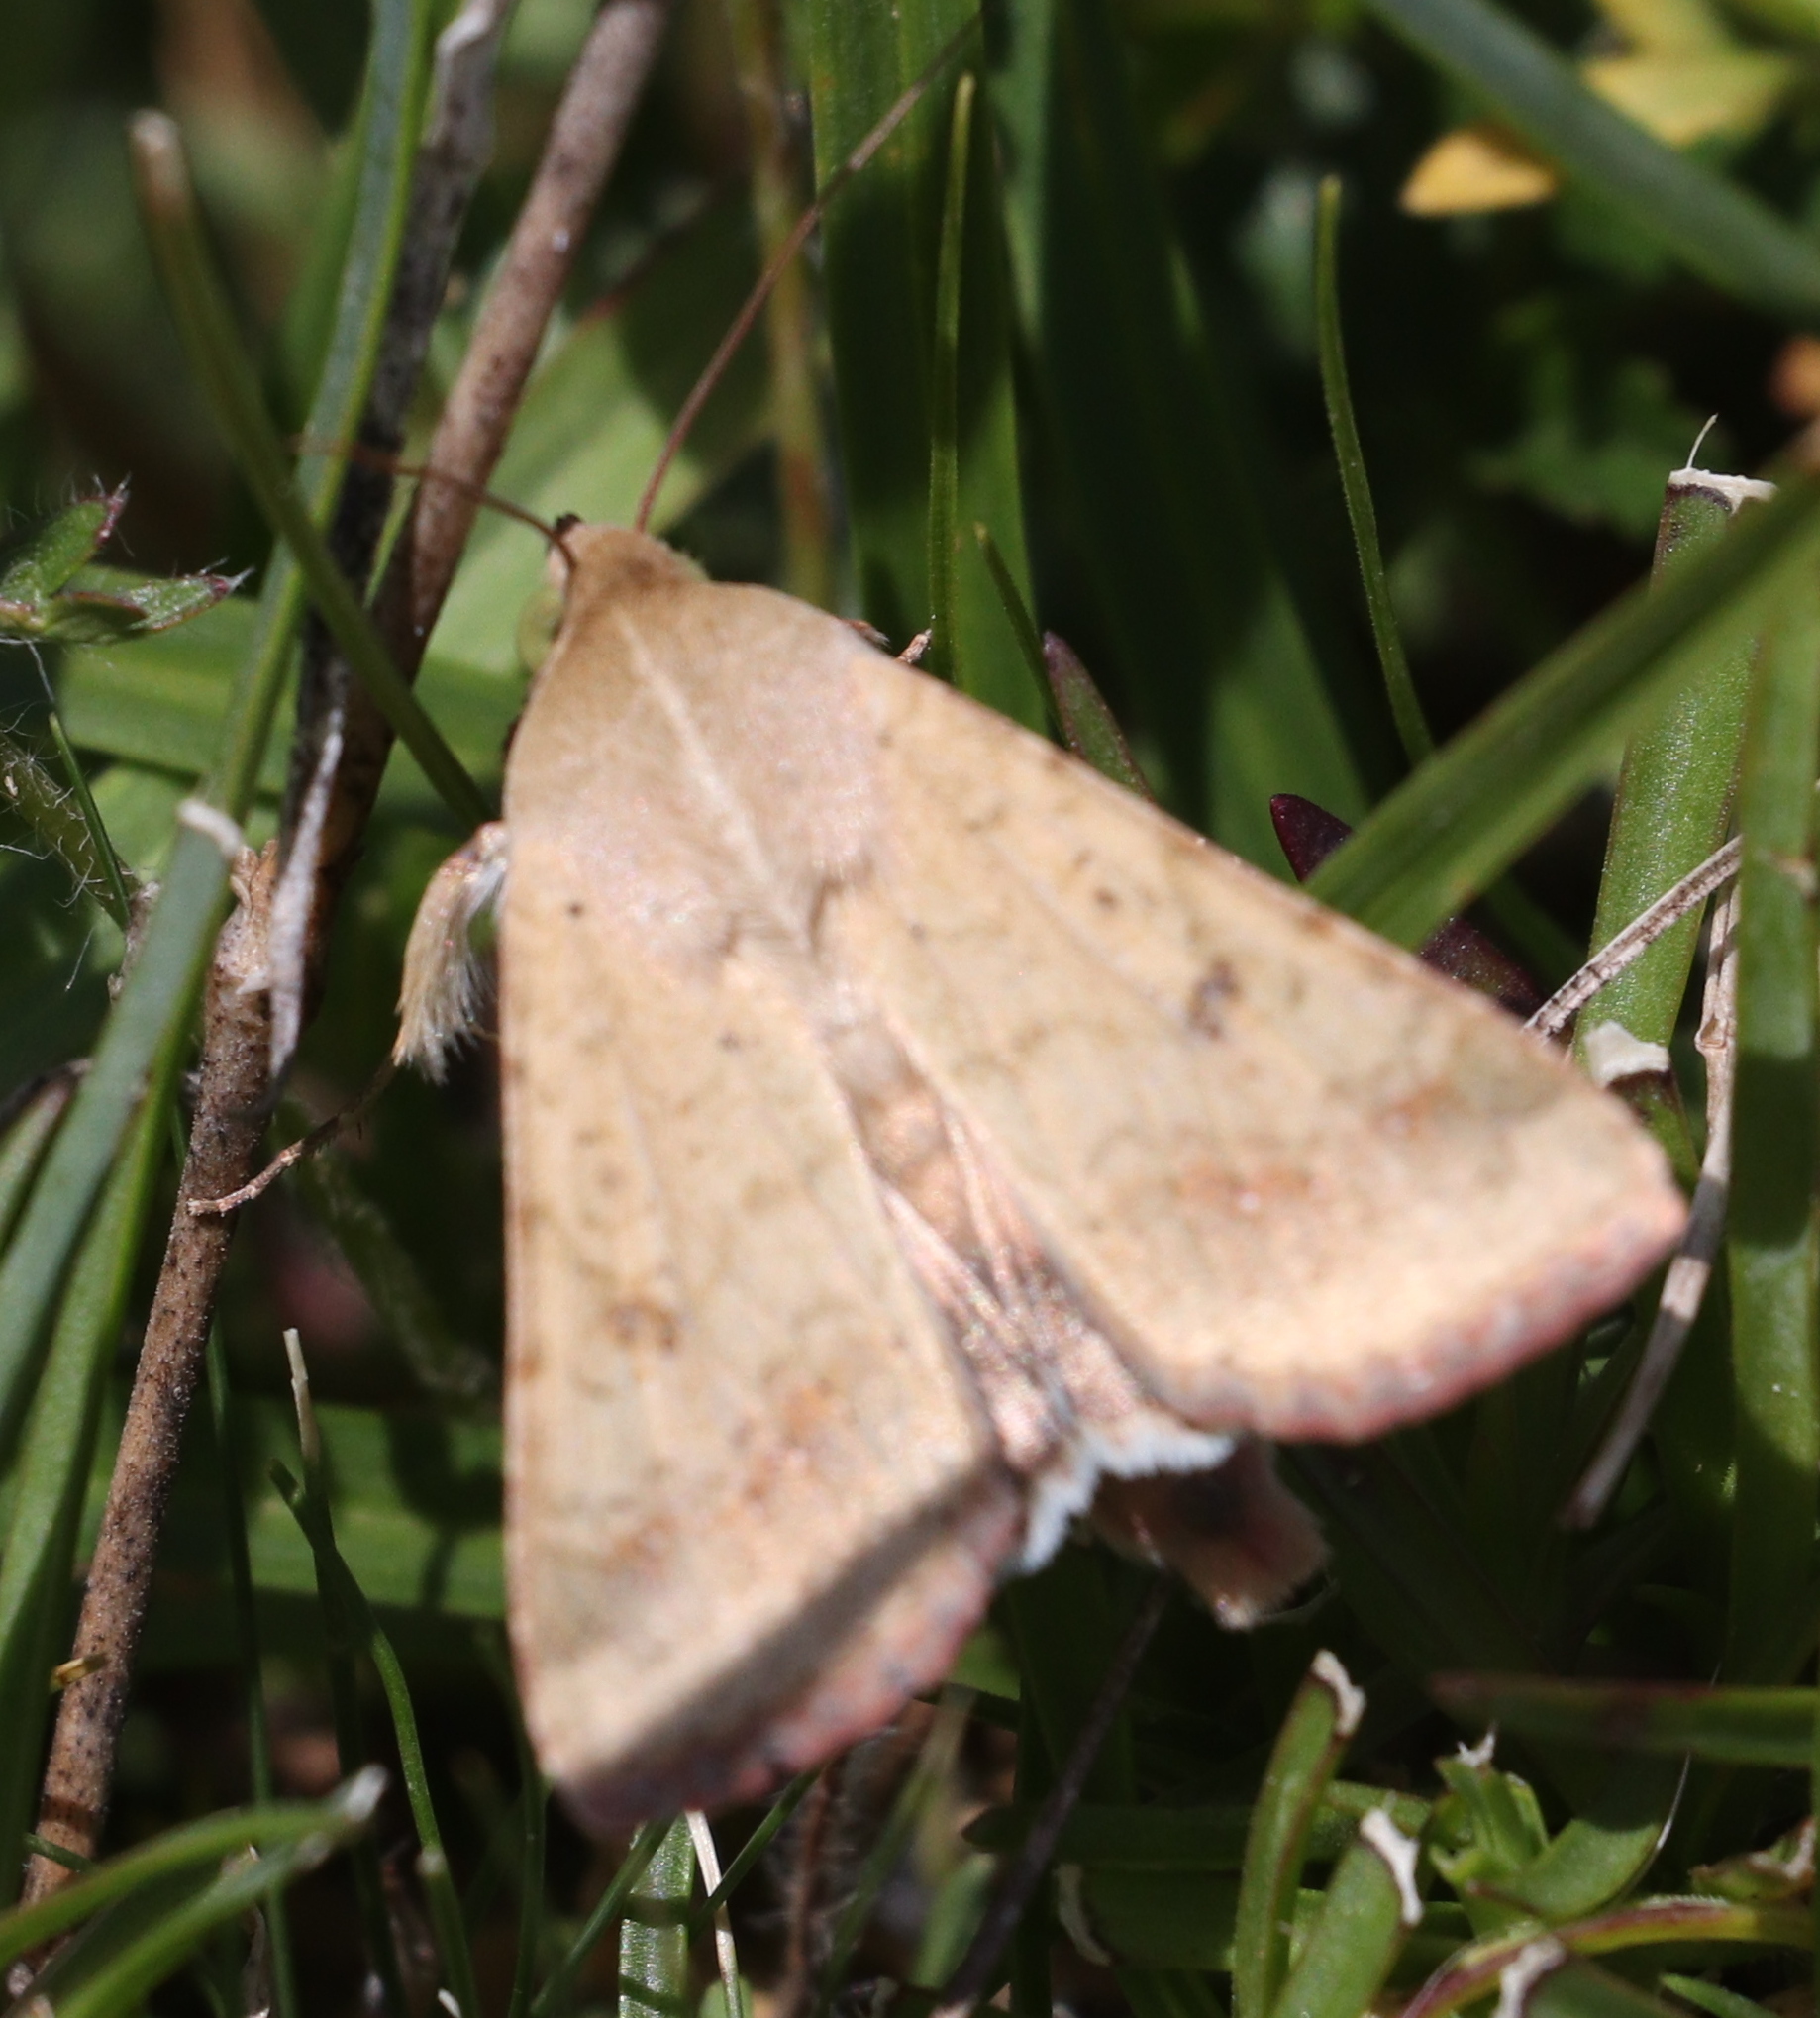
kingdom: Animalia
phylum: Arthropoda
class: Insecta
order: Lepidoptera
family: Noctuidae
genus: Helicoverpa
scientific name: Helicoverpa armigera
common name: Cotton bollworm
